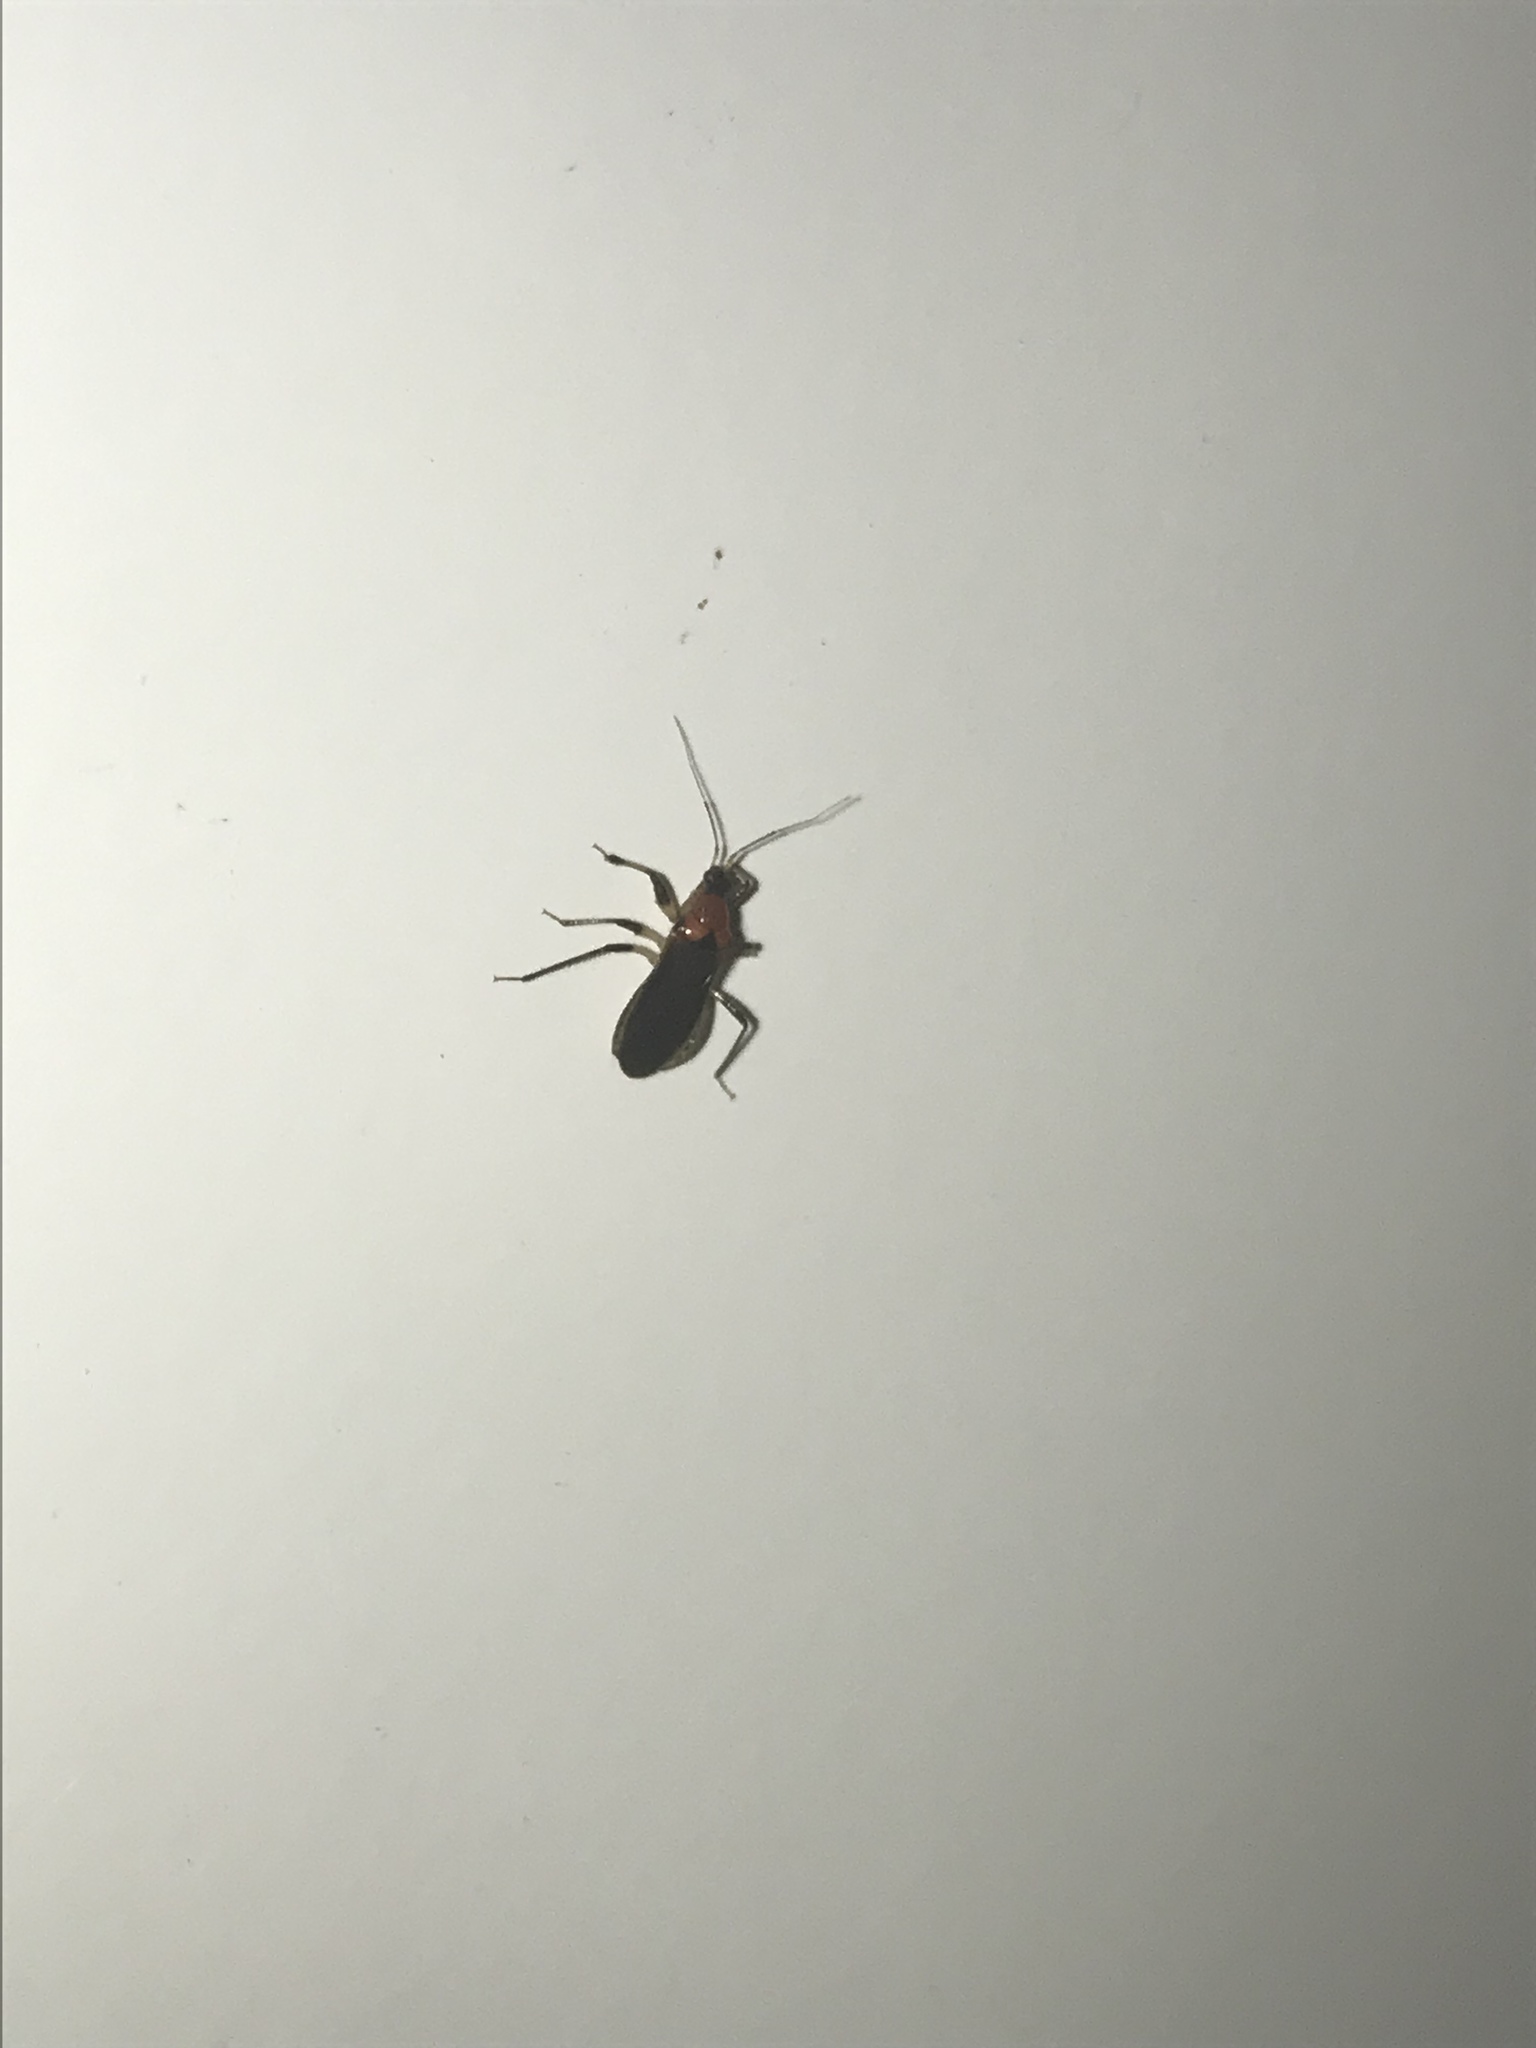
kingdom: Animalia
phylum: Arthropoda
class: Insecta
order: Hemiptera
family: Nabidae
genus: Alloeorhynchus
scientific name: Alloeorhynchus trimacula
